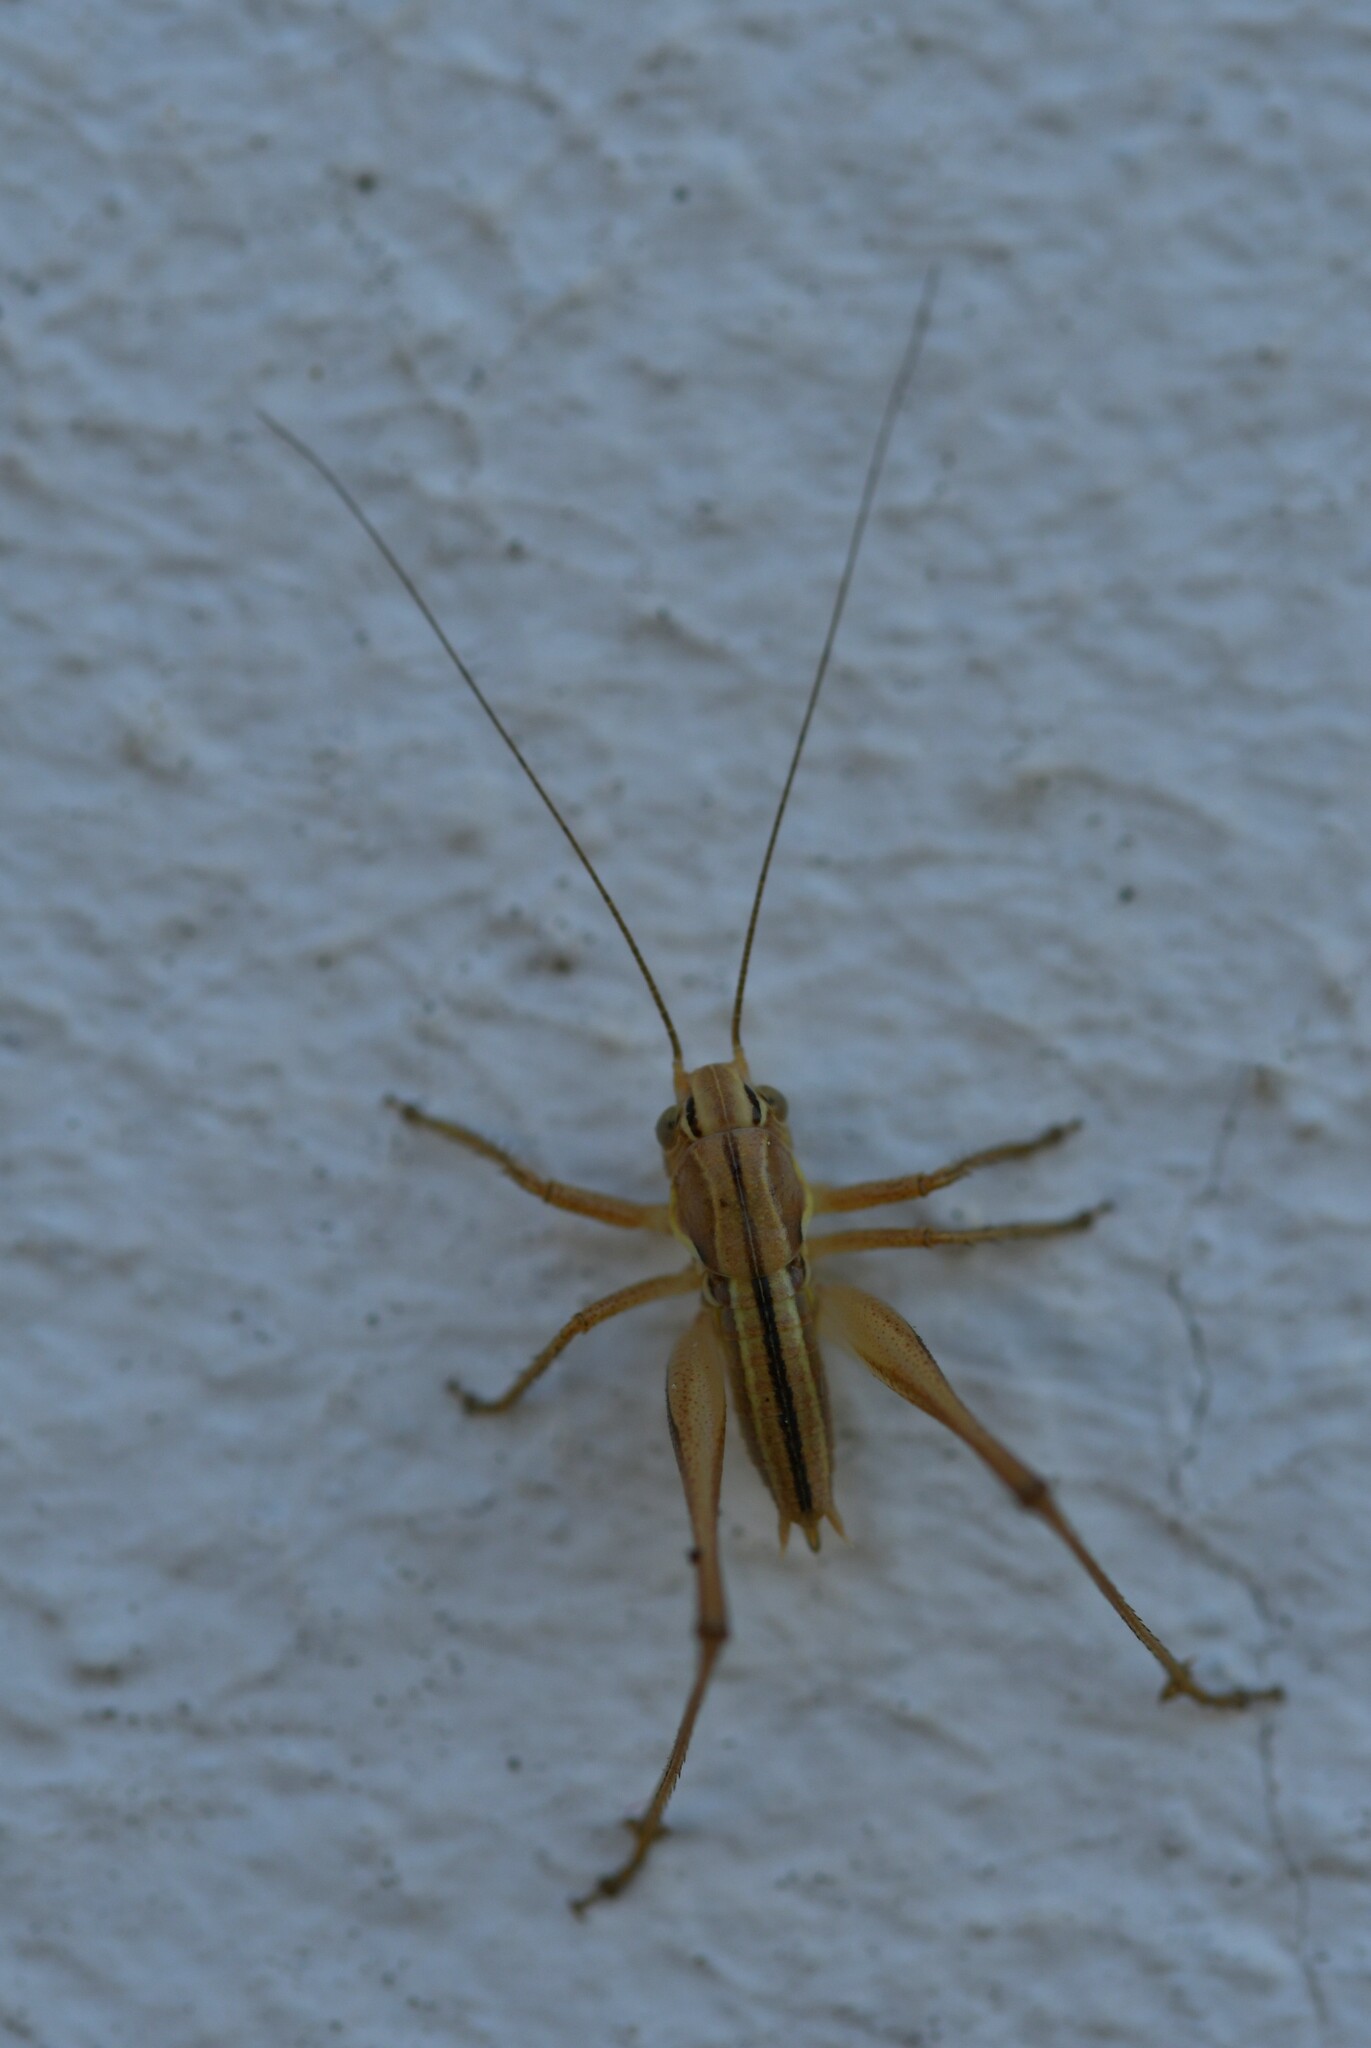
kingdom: Animalia
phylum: Arthropoda
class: Insecta
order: Orthoptera
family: Tettigoniidae
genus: Tessellana
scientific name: Tessellana tessellata
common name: Grasshopper
